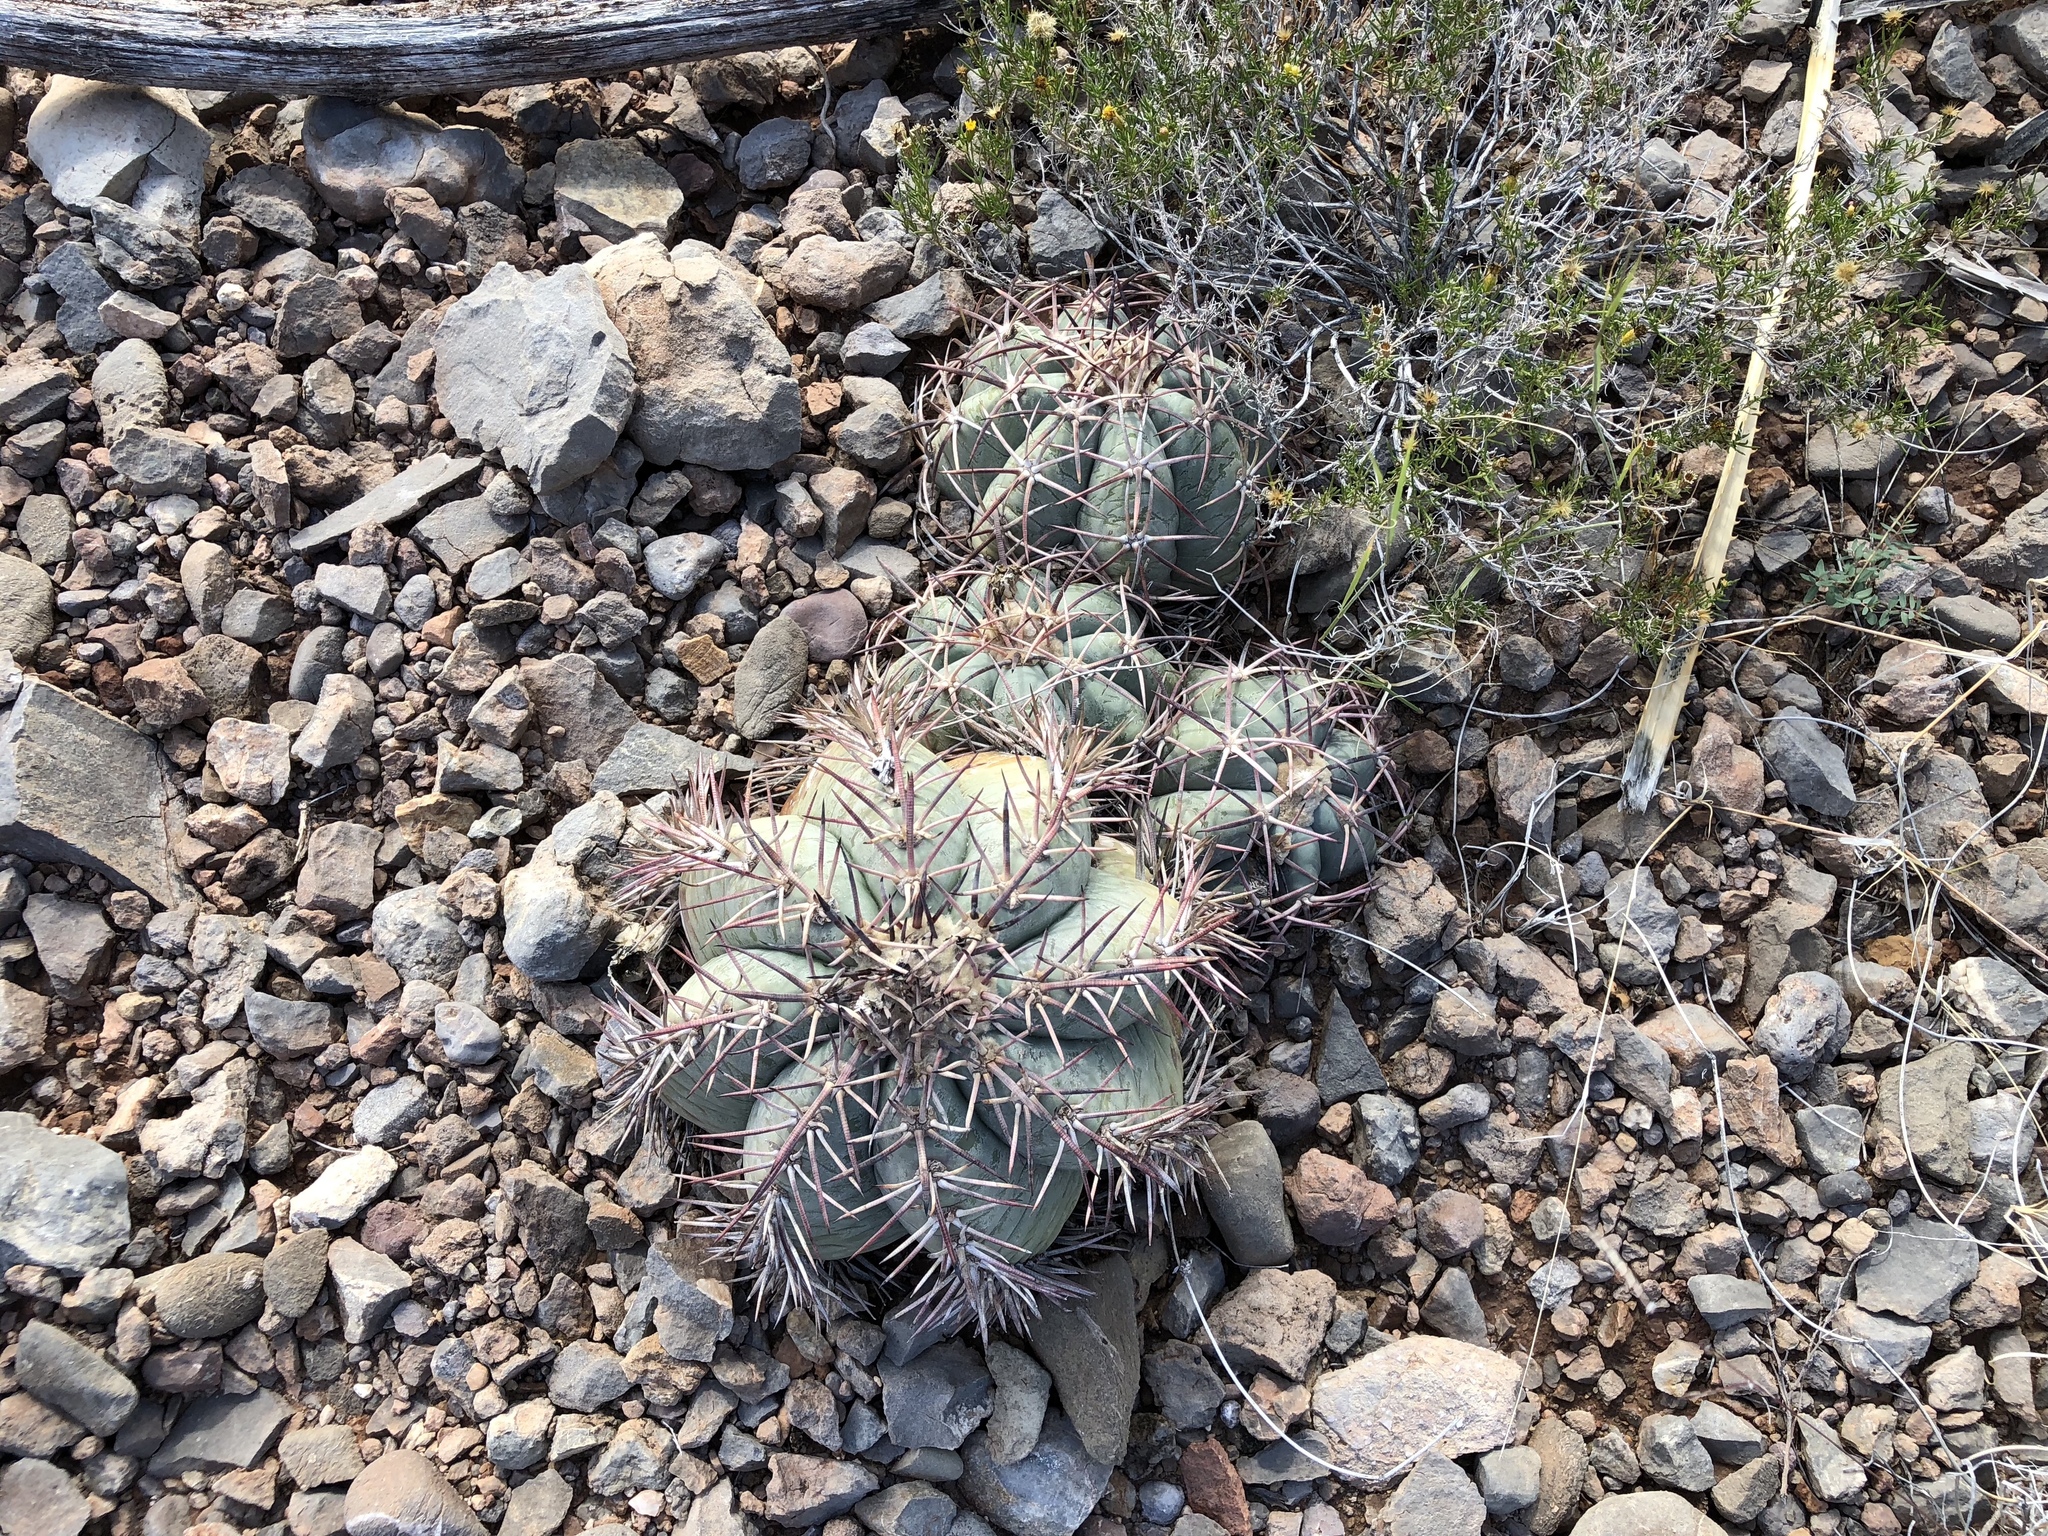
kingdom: Plantae
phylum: Tracheophyta
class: Magnoliopsida
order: Caryophyllales
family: Cactaceae
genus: Echinocactus
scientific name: Echinocactus horizonthalonius
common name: Devilshead
